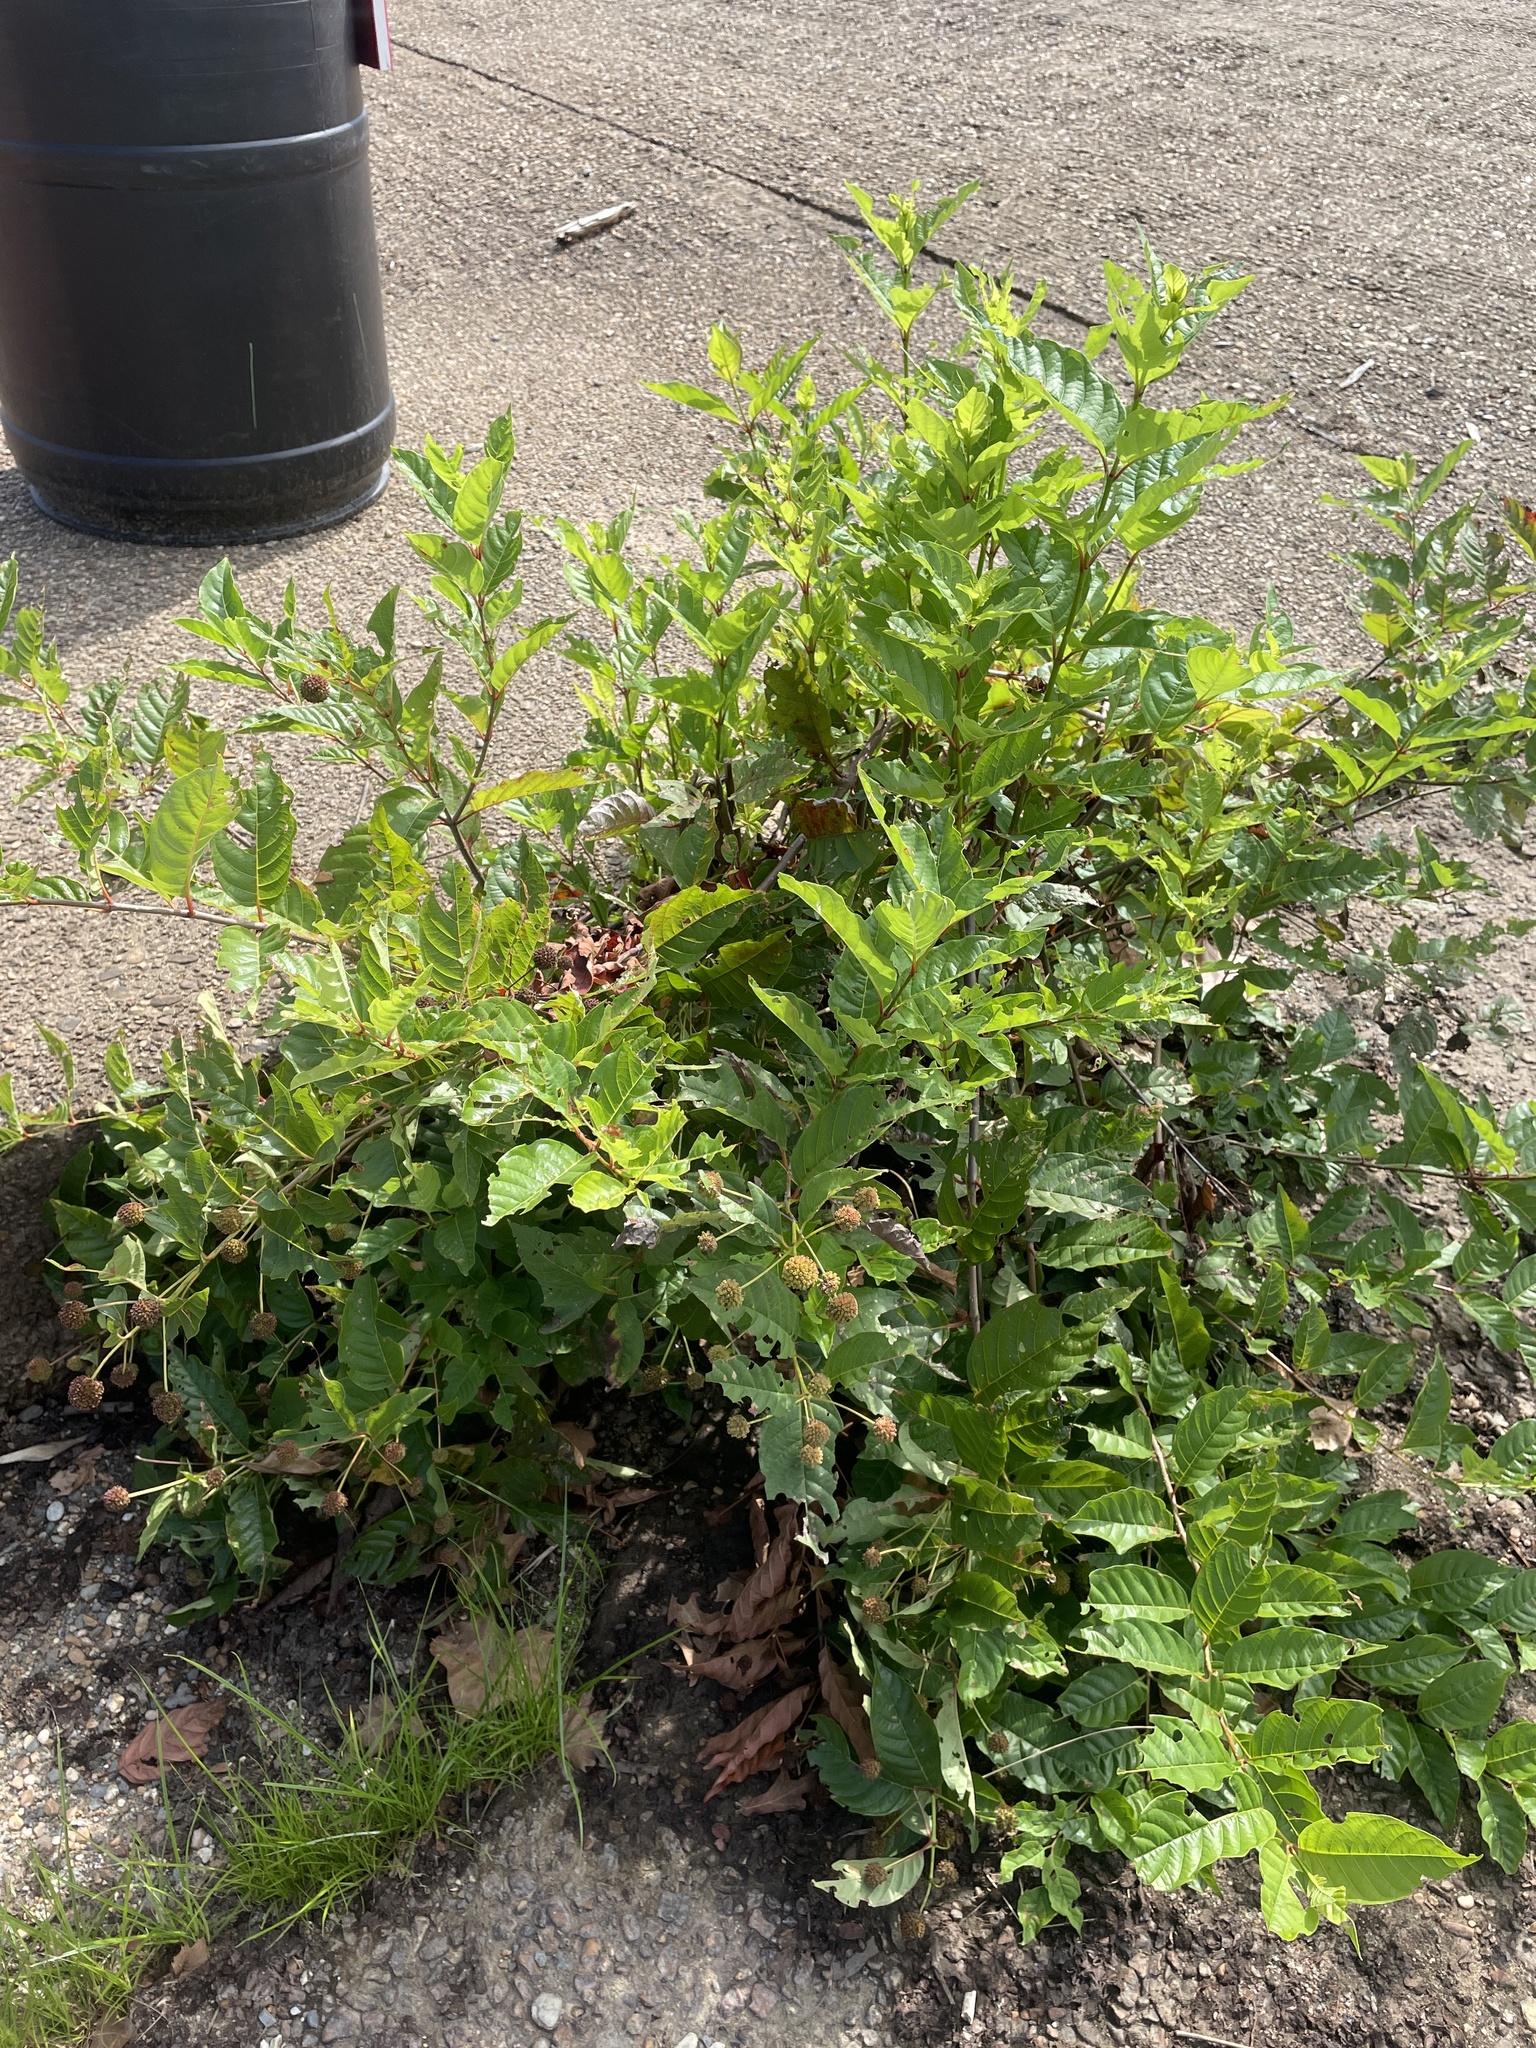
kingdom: Plantae
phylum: Tracheophyta
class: Magnoliopsida
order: Gentianales
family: Rubiaceae
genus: Cephalanthus
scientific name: Cephalanthus occidentalis
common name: Button-willow
